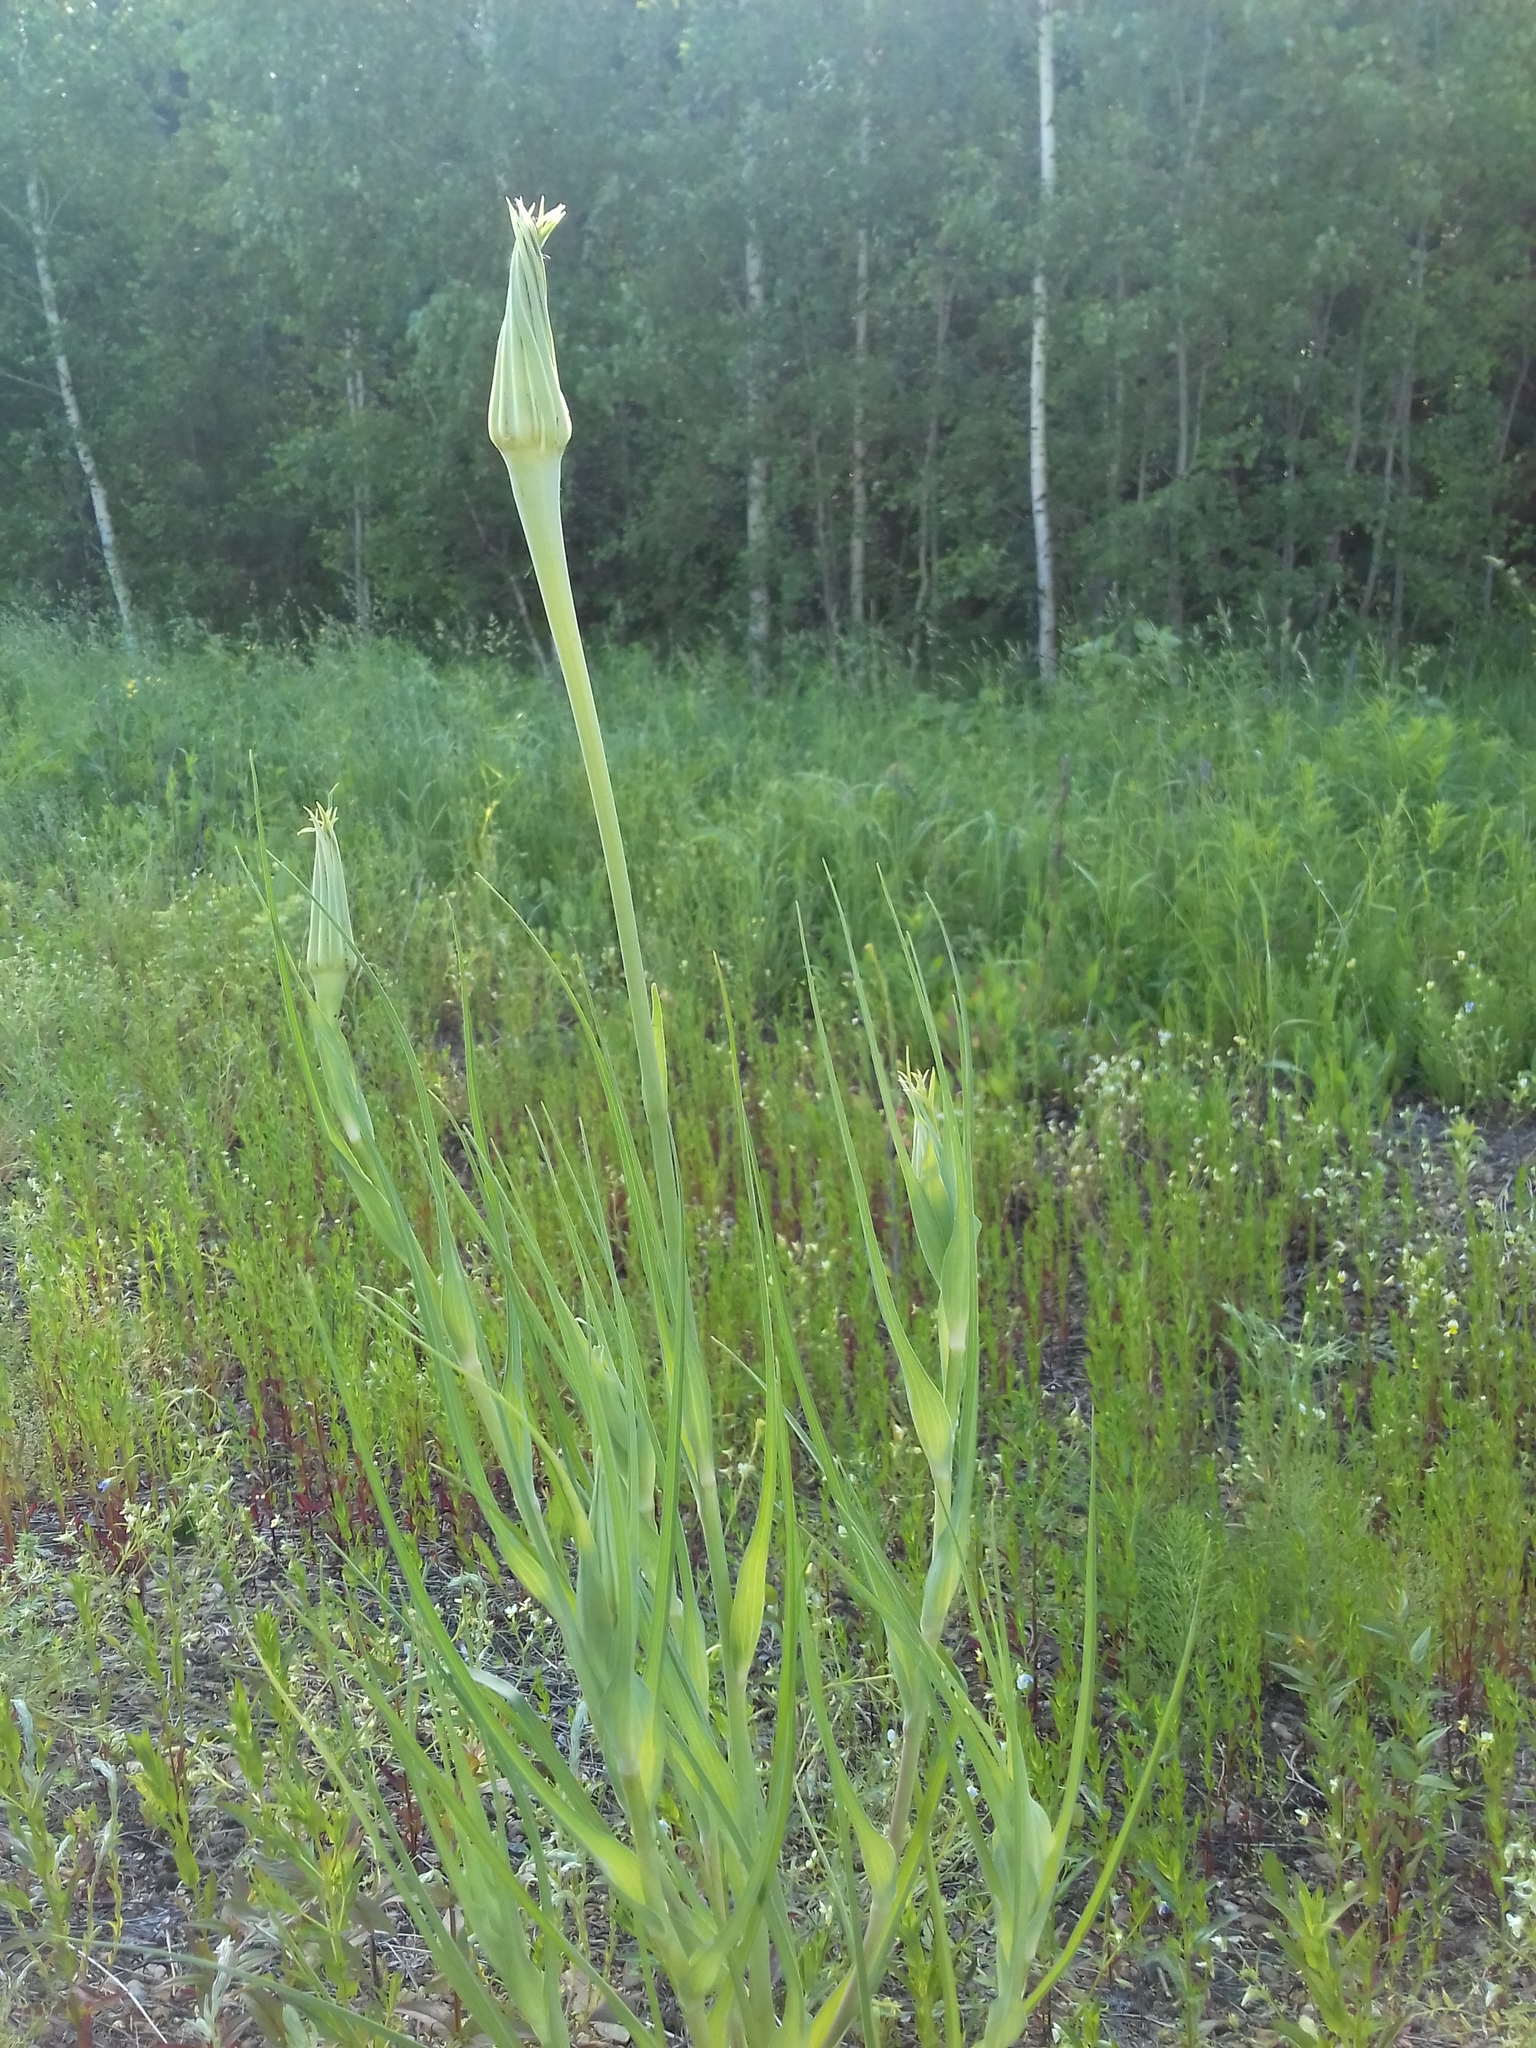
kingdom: Plantae
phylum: Tracheophyta
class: Magnoliopsida
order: Asterales
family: Asteraceae
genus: Tragopogon
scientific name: Tragopogon dubius
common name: Yellow salsify
